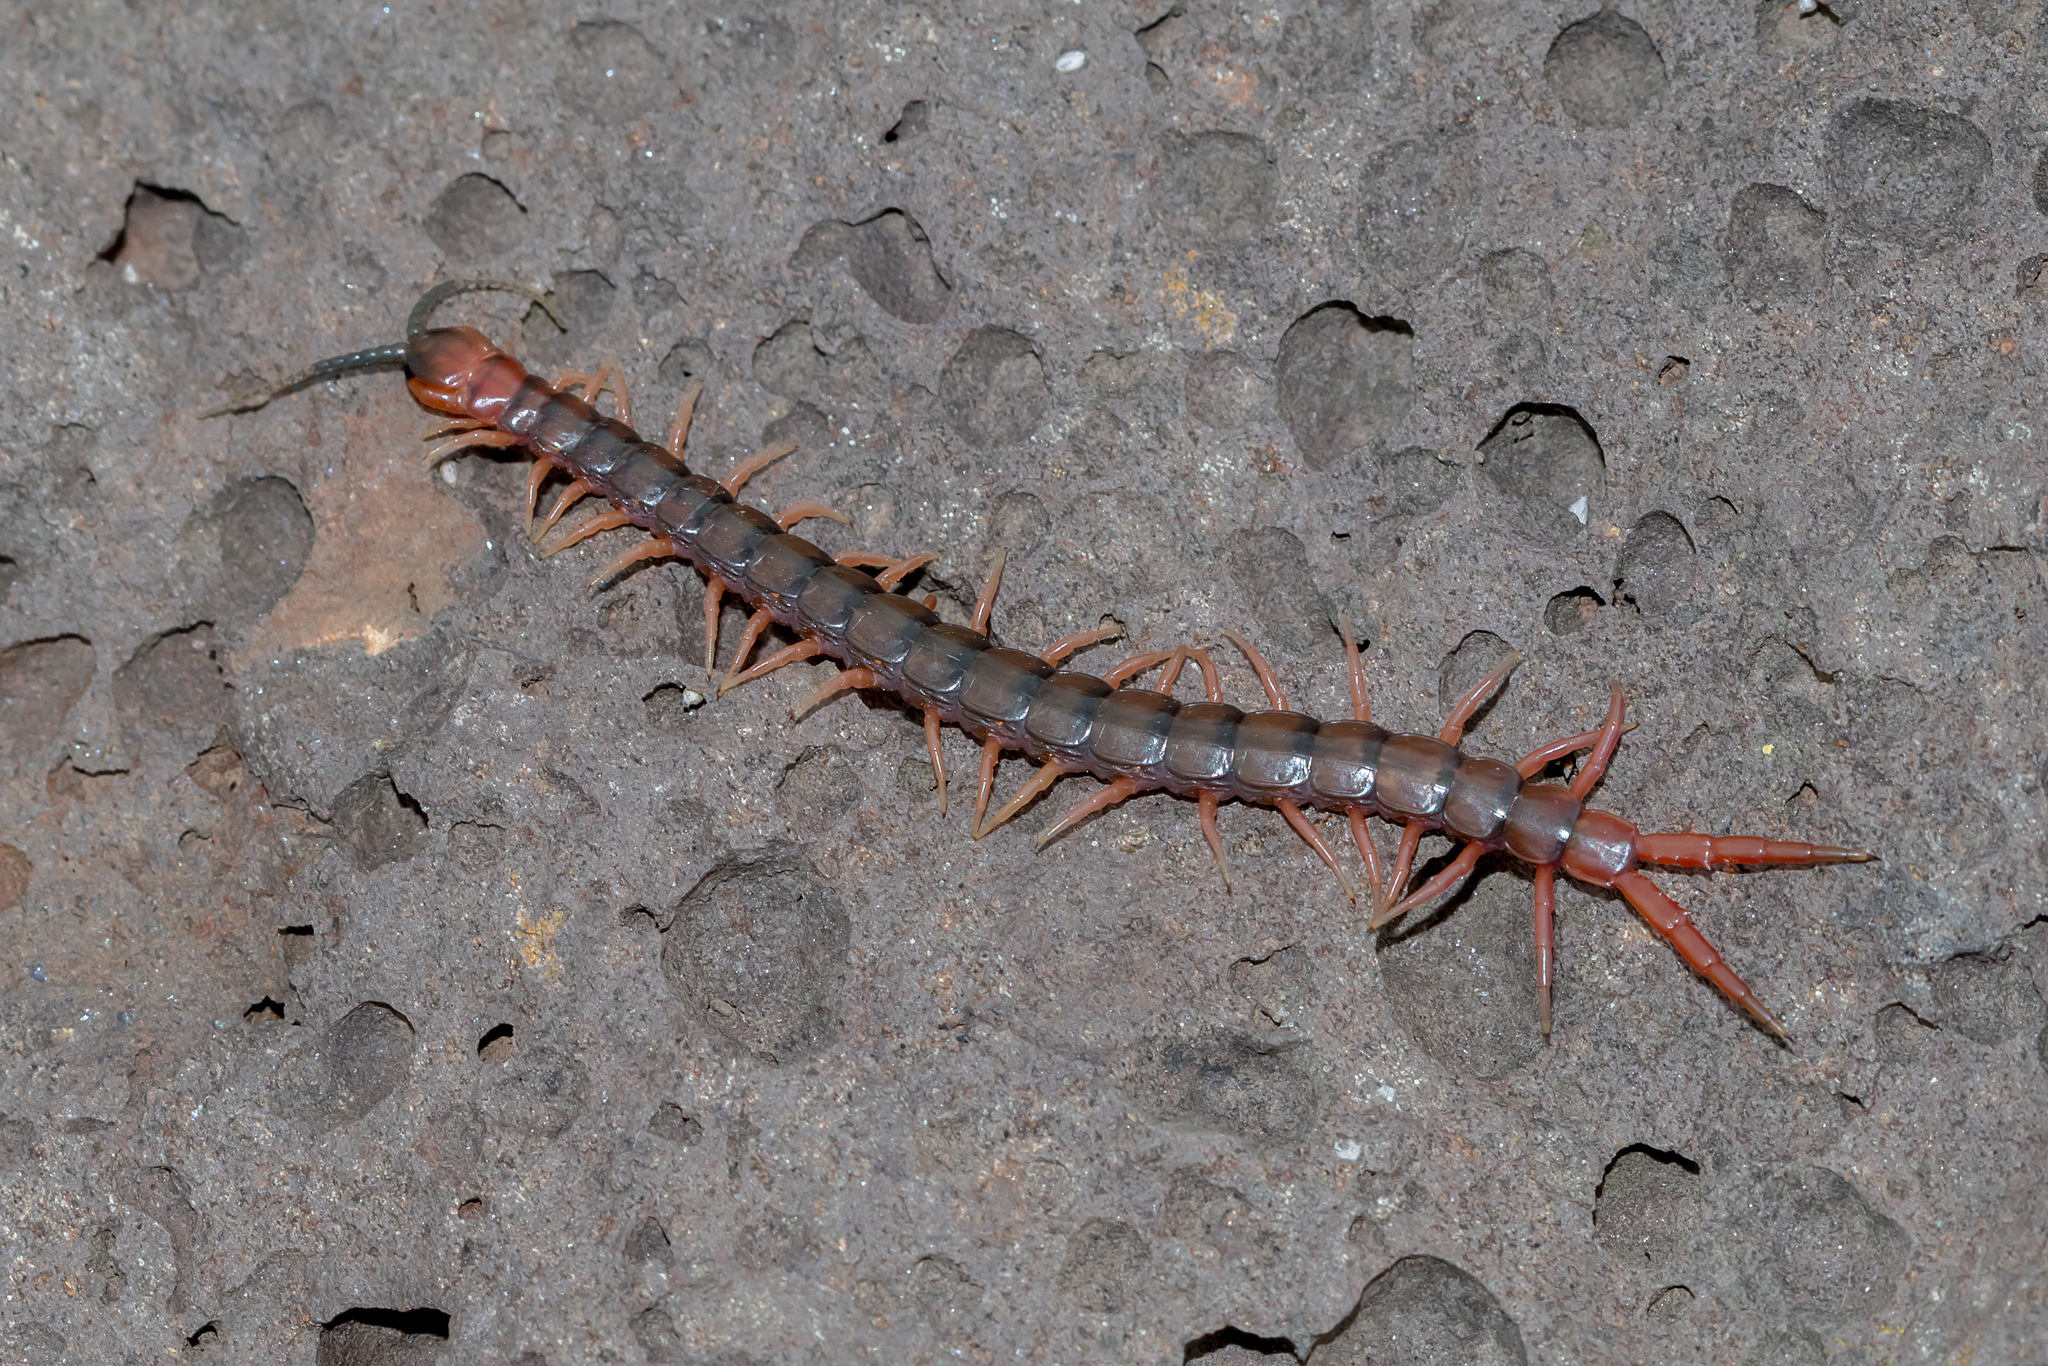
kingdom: Animalia
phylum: Arthropoda
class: Chilopoda
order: Scolopendromorpha
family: Scolopendridae
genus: Cormocephalus
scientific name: Cormocephalus aurantiipes
